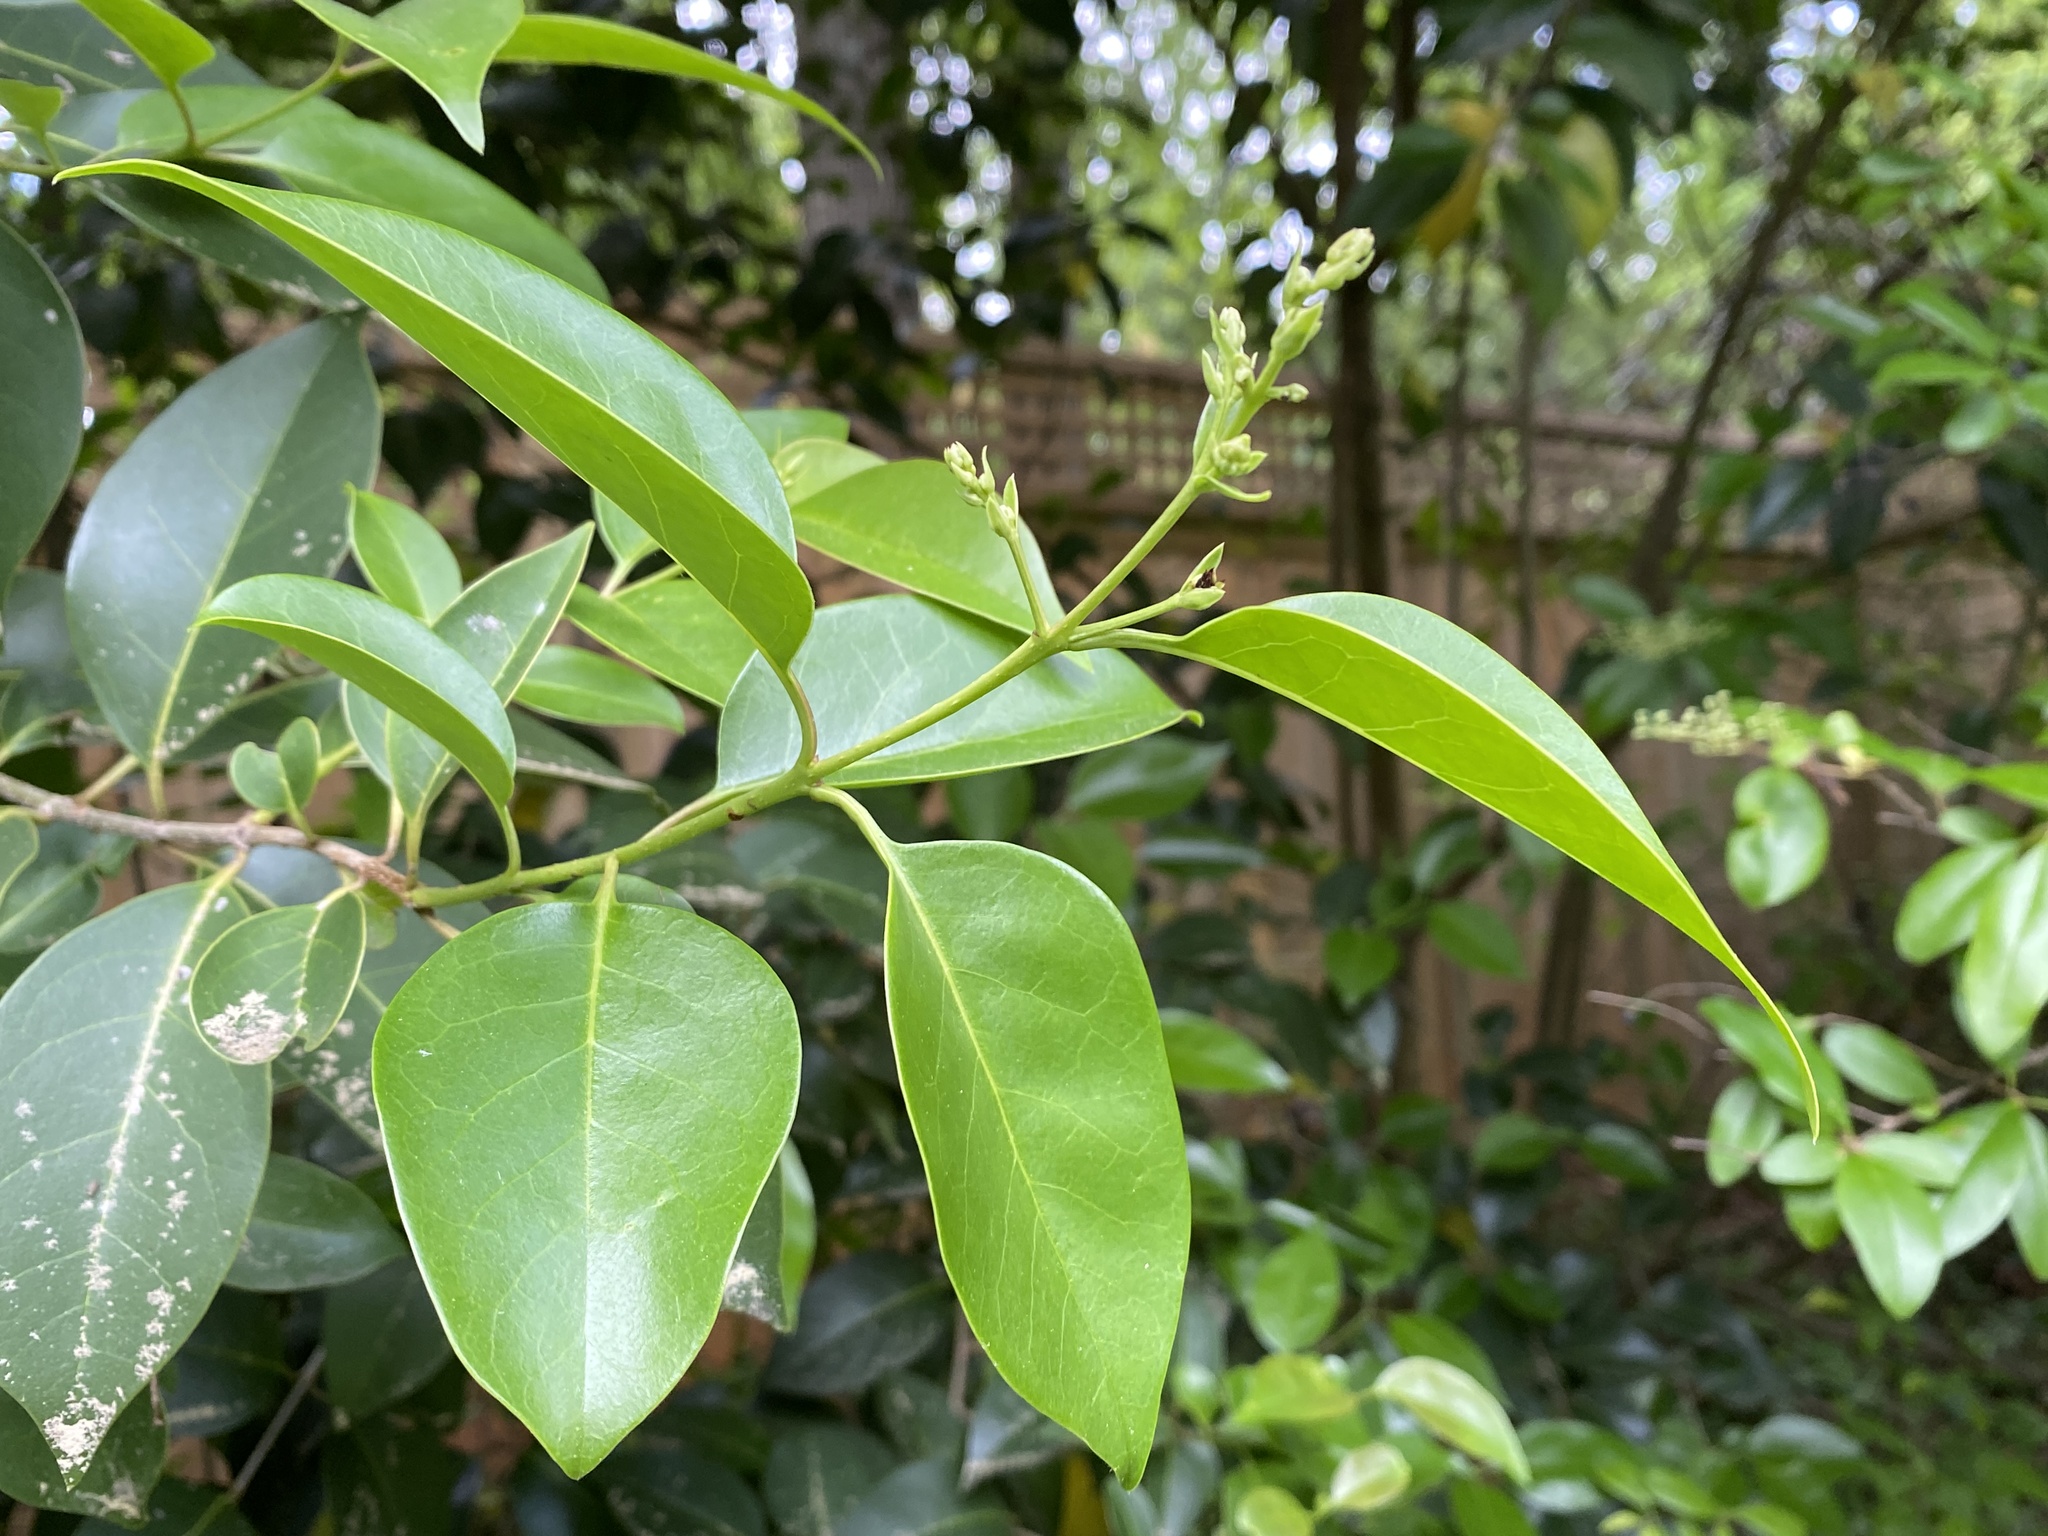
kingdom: Plantae
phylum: Tracheophyta
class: Magnoliopsida
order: Lamiales
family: Oleaceae
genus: Ligustrum
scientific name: Ligustrum lucidum
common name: Glossy privet
